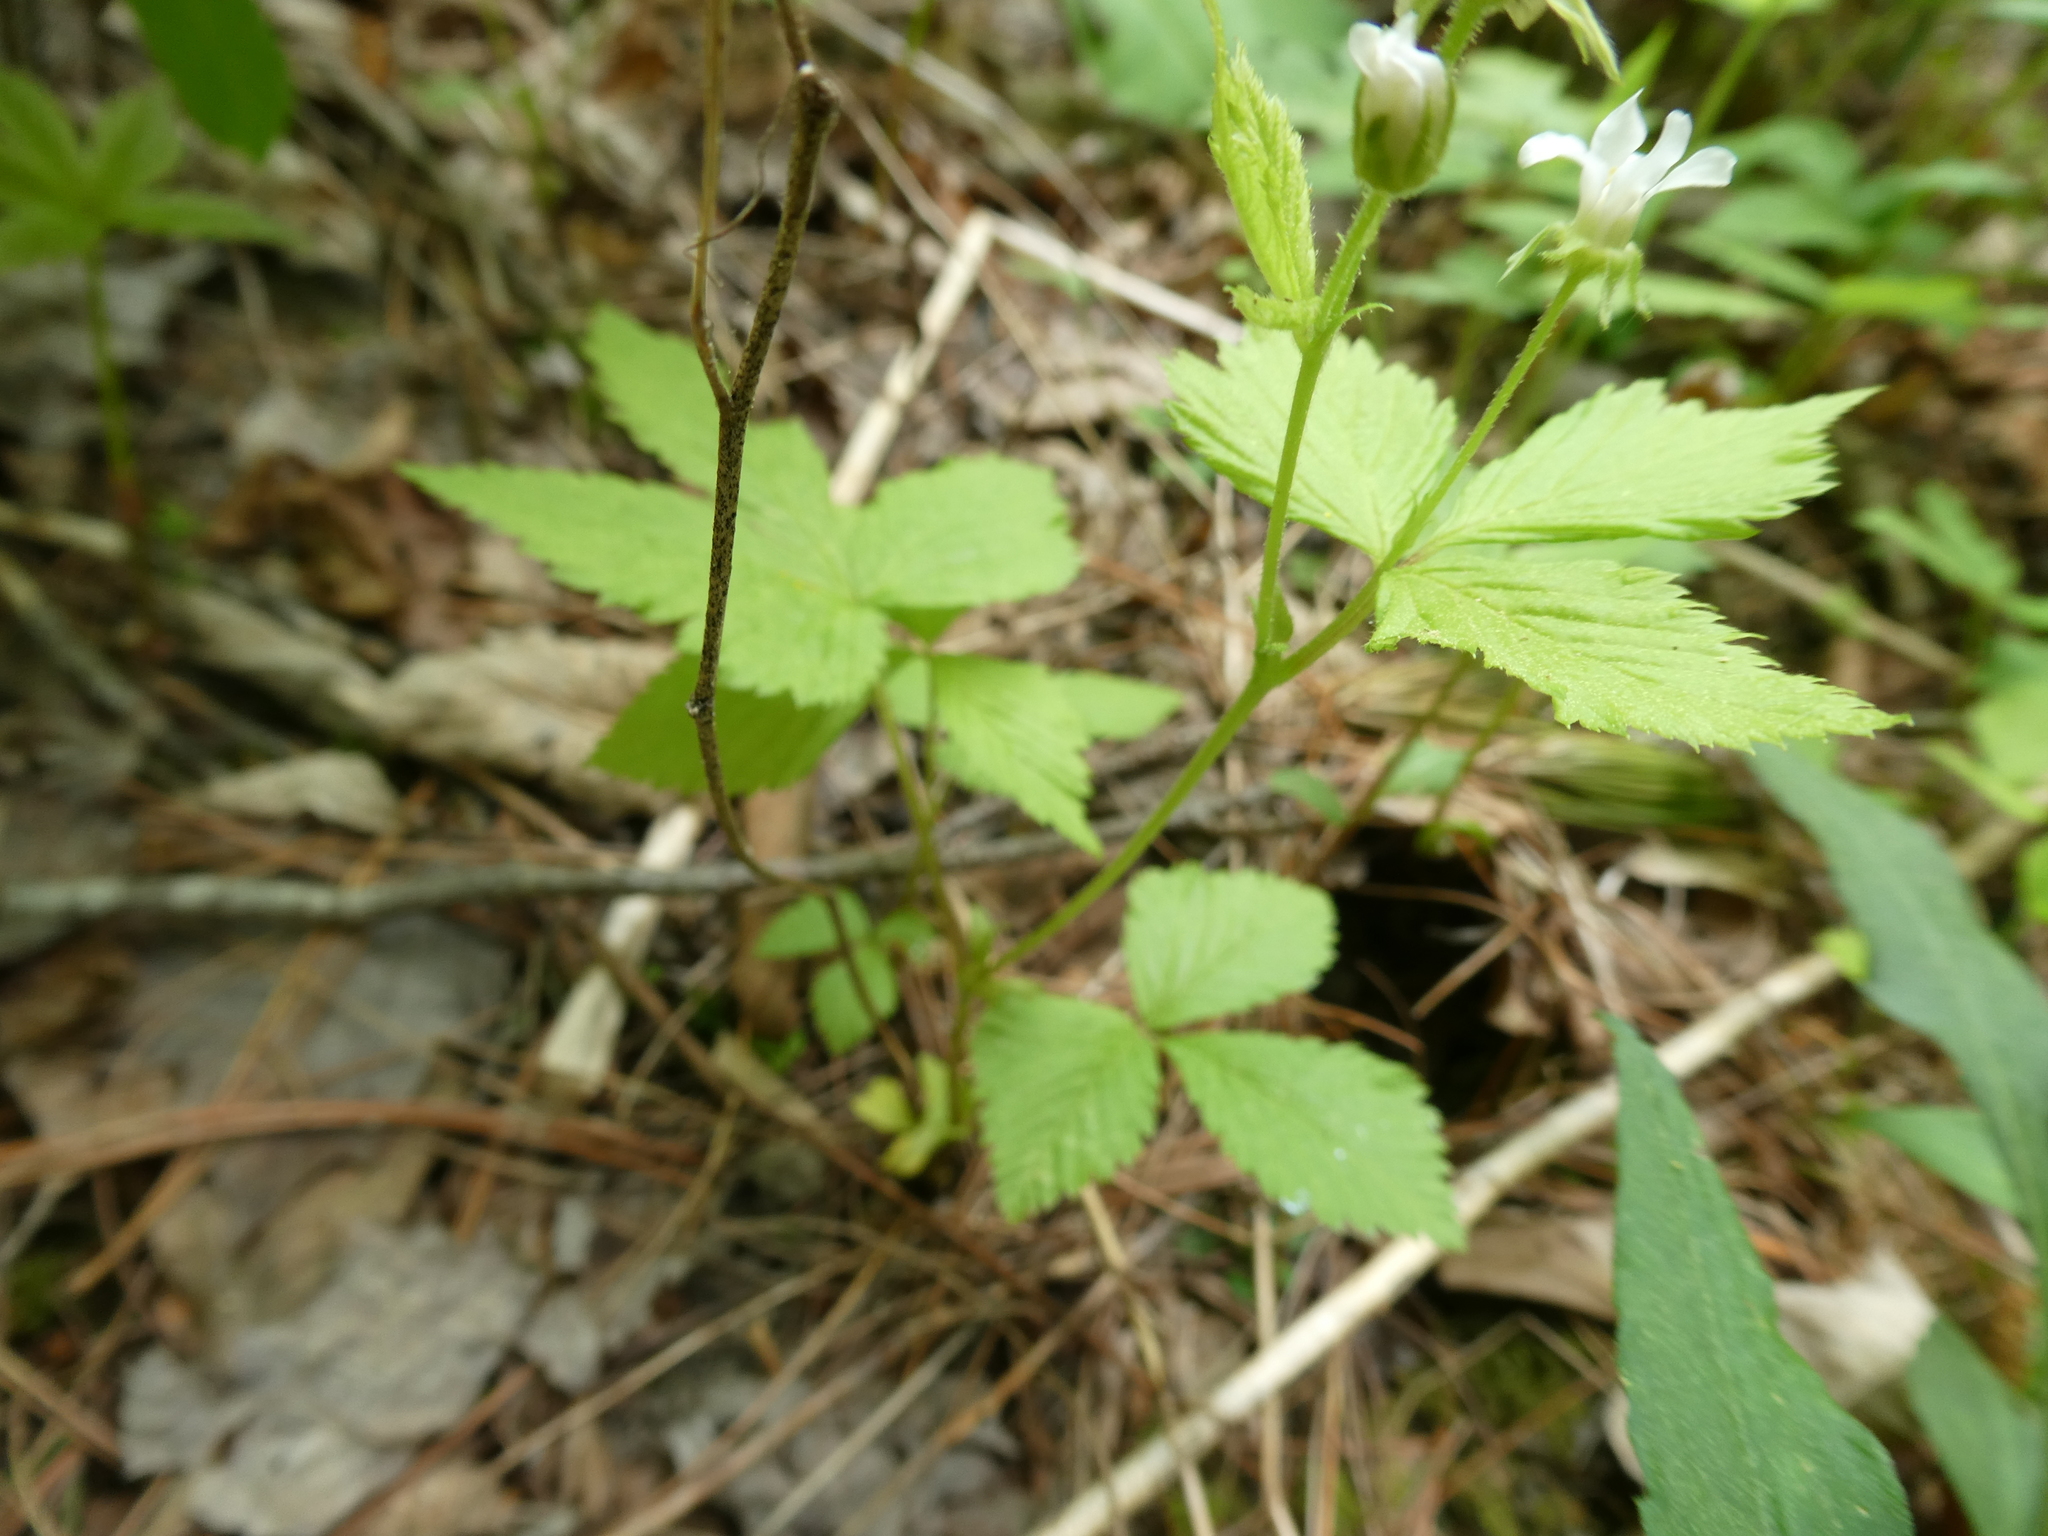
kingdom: Plantae
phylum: Tracheophyta
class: Magnoliopsida
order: Rosales
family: Rosaceae
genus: Rubus
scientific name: Rubus pubescens
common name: Dwarf raspberry
